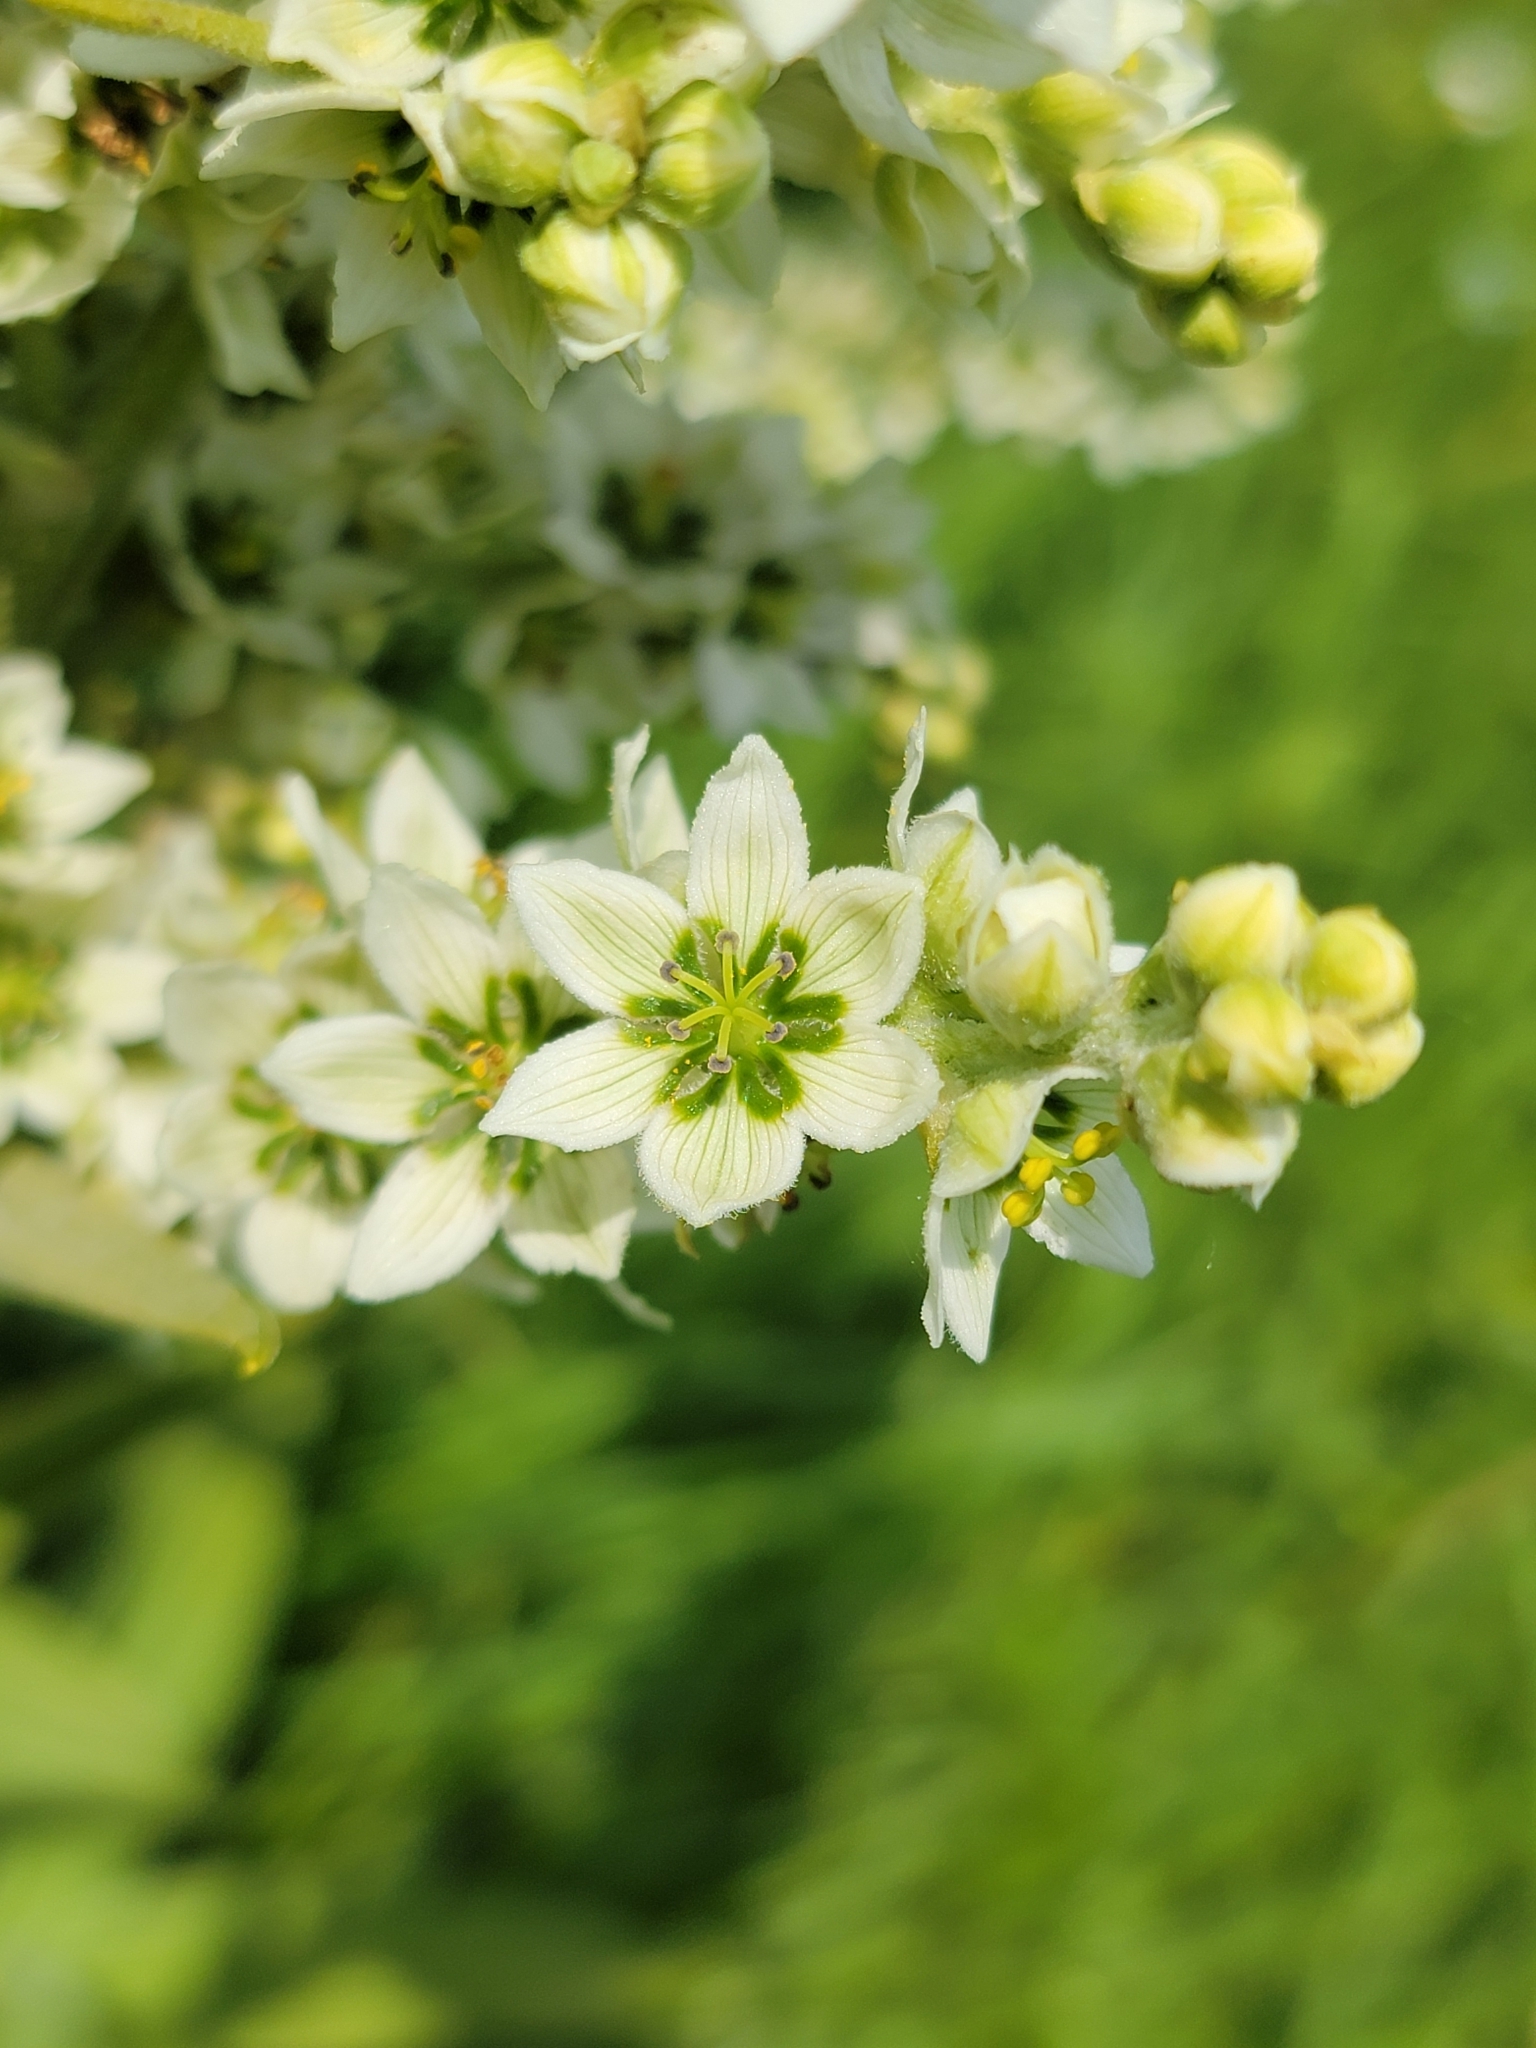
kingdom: Plantae
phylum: Tracheophyta
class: Liliopsida
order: Liliales
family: Melanthiaceae
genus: Veratrum
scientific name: Veratrum album
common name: White veratrum
